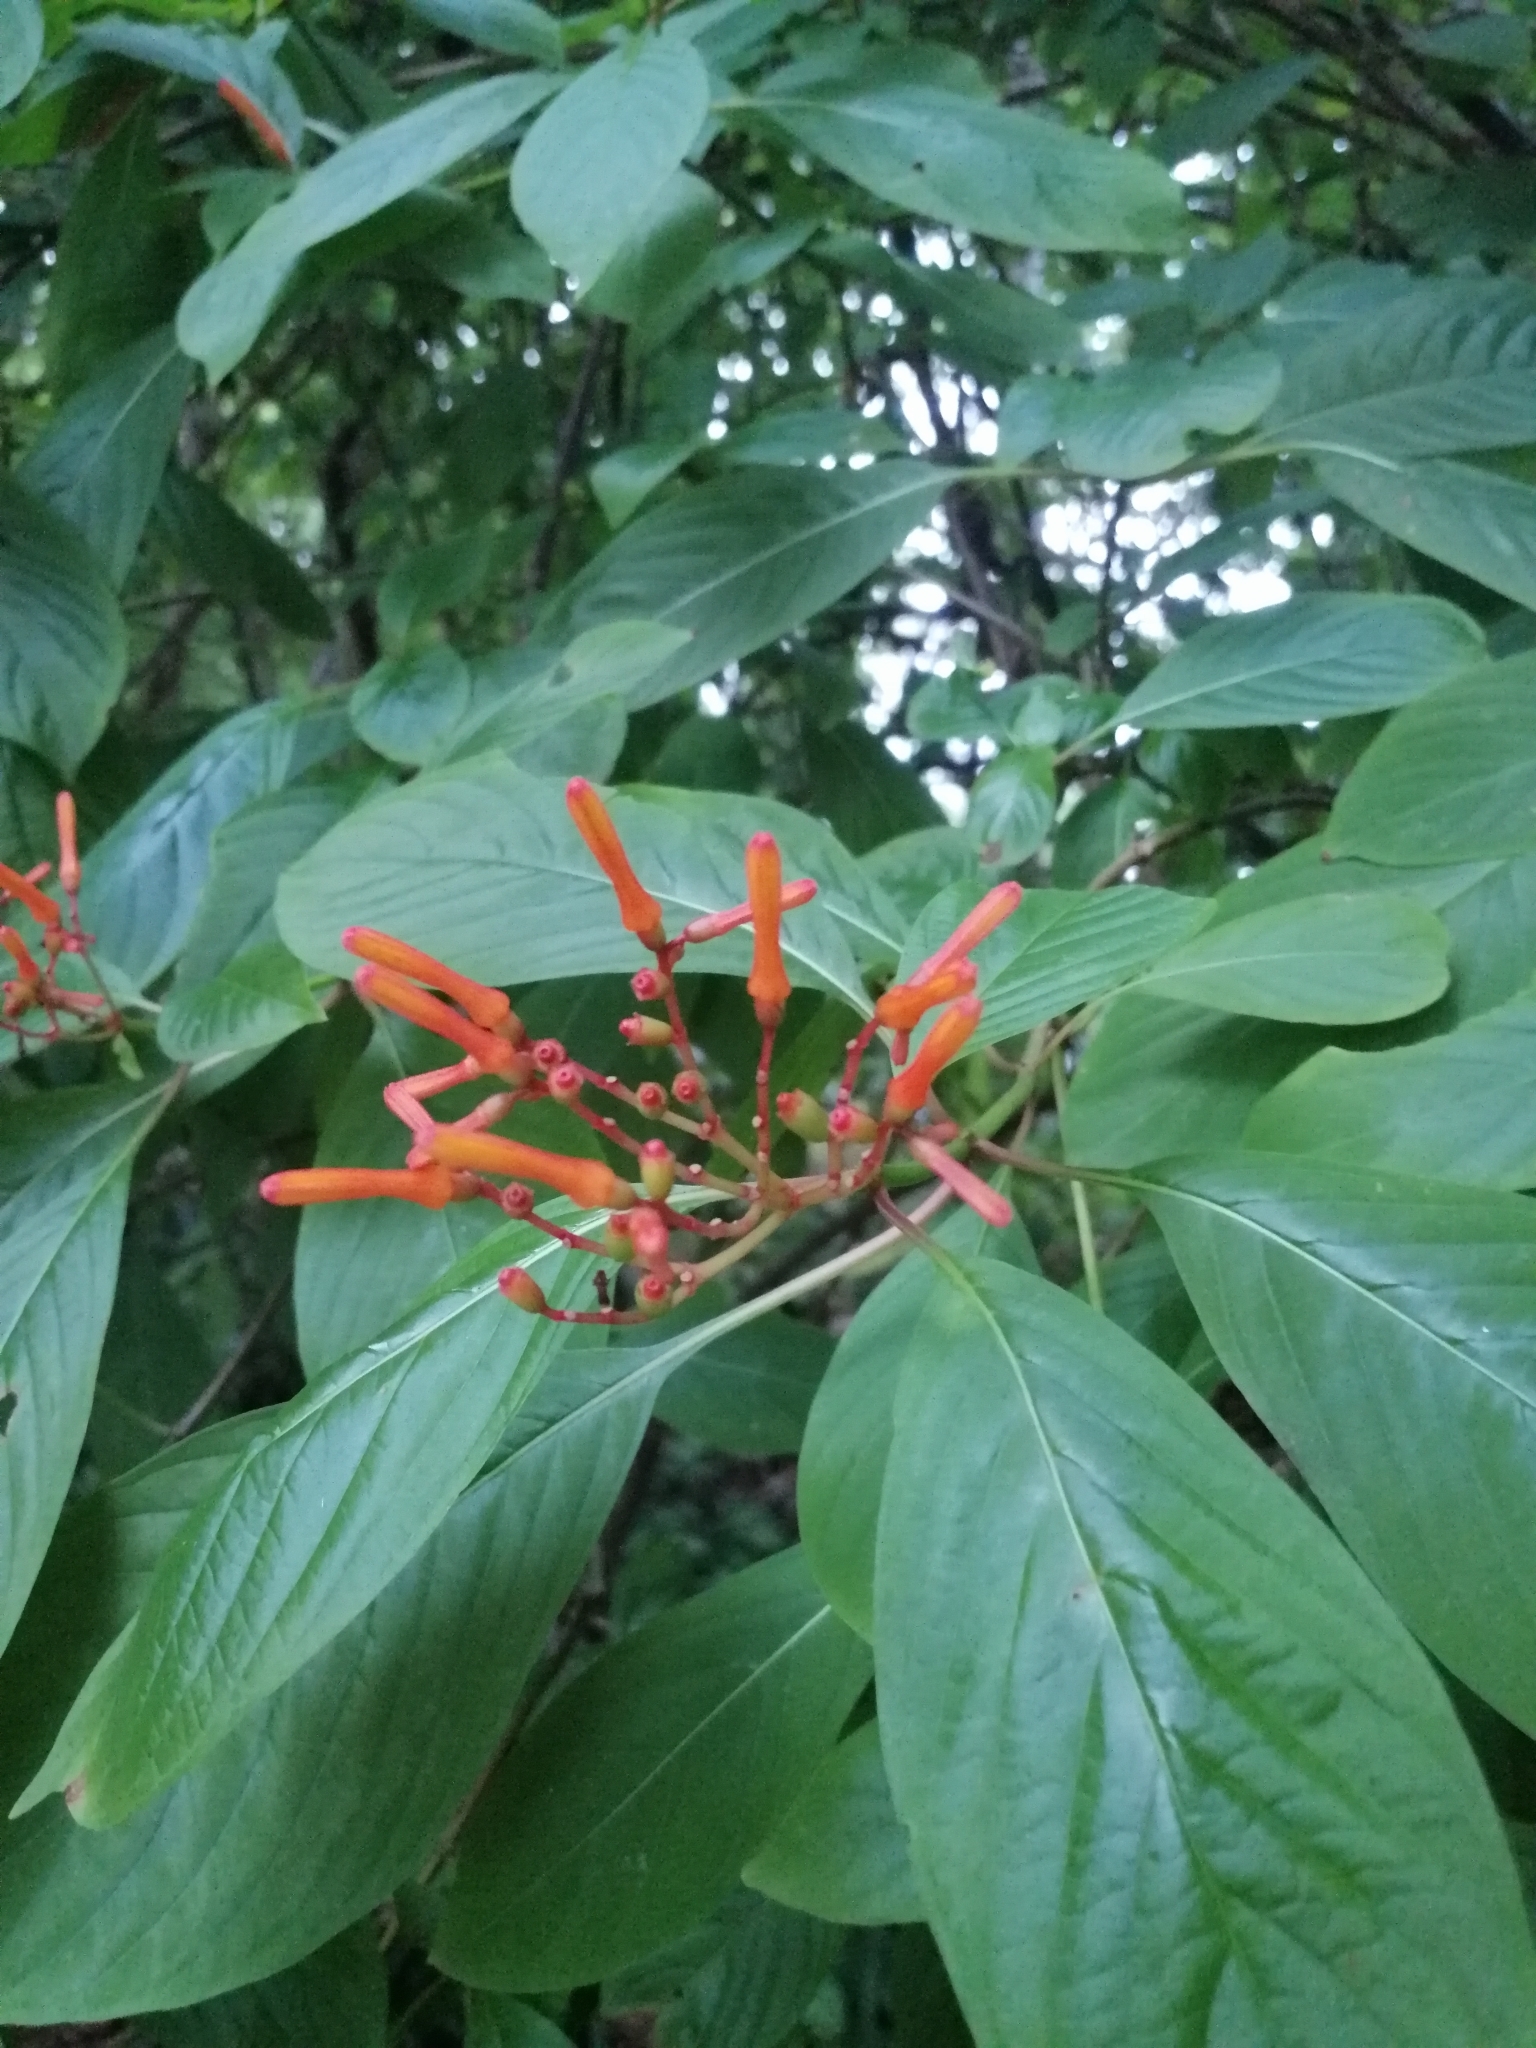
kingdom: Plantae
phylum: Tracheophyta
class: Magnoliopsida
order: Gentianales
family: Rubiaceae
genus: Hamelia
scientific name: Hamelia patens
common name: Redhead
